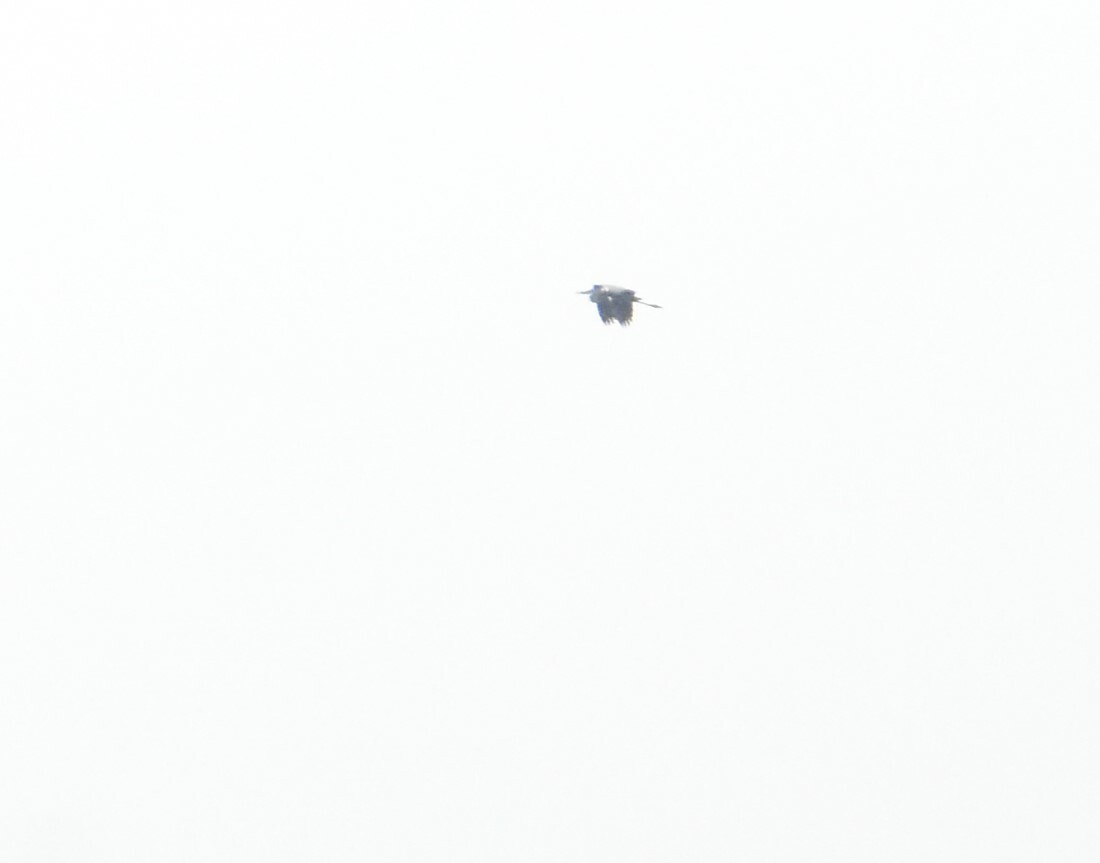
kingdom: Animalia
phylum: Chordata
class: Aves
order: Pelecaniformes
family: Ardeidae
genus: Ardea
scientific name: Ardea cinerea
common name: Grey heron
